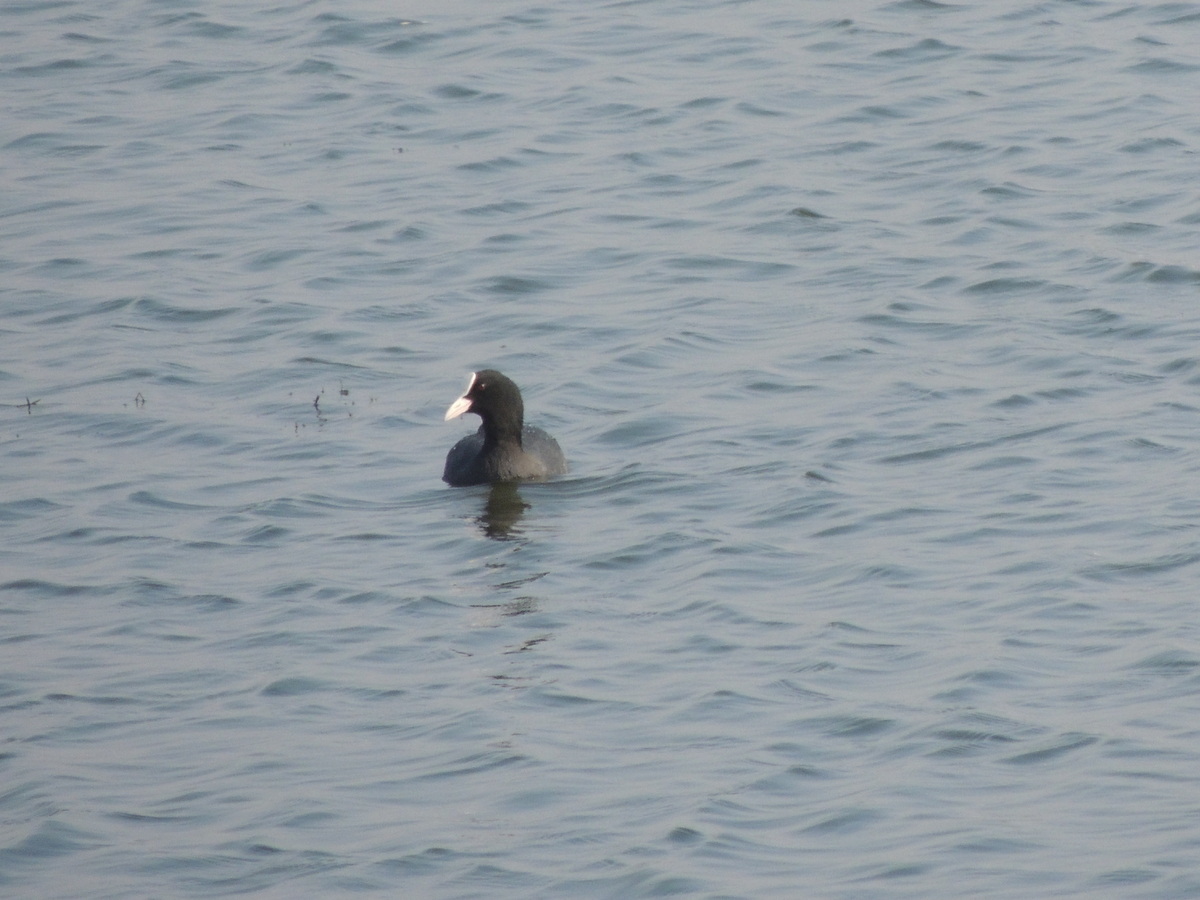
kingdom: Animalia
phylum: Chordata
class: Aves
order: Gruiformes
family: Rallidae
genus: Fulica
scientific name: Fulica atra
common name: Eurasian coot
